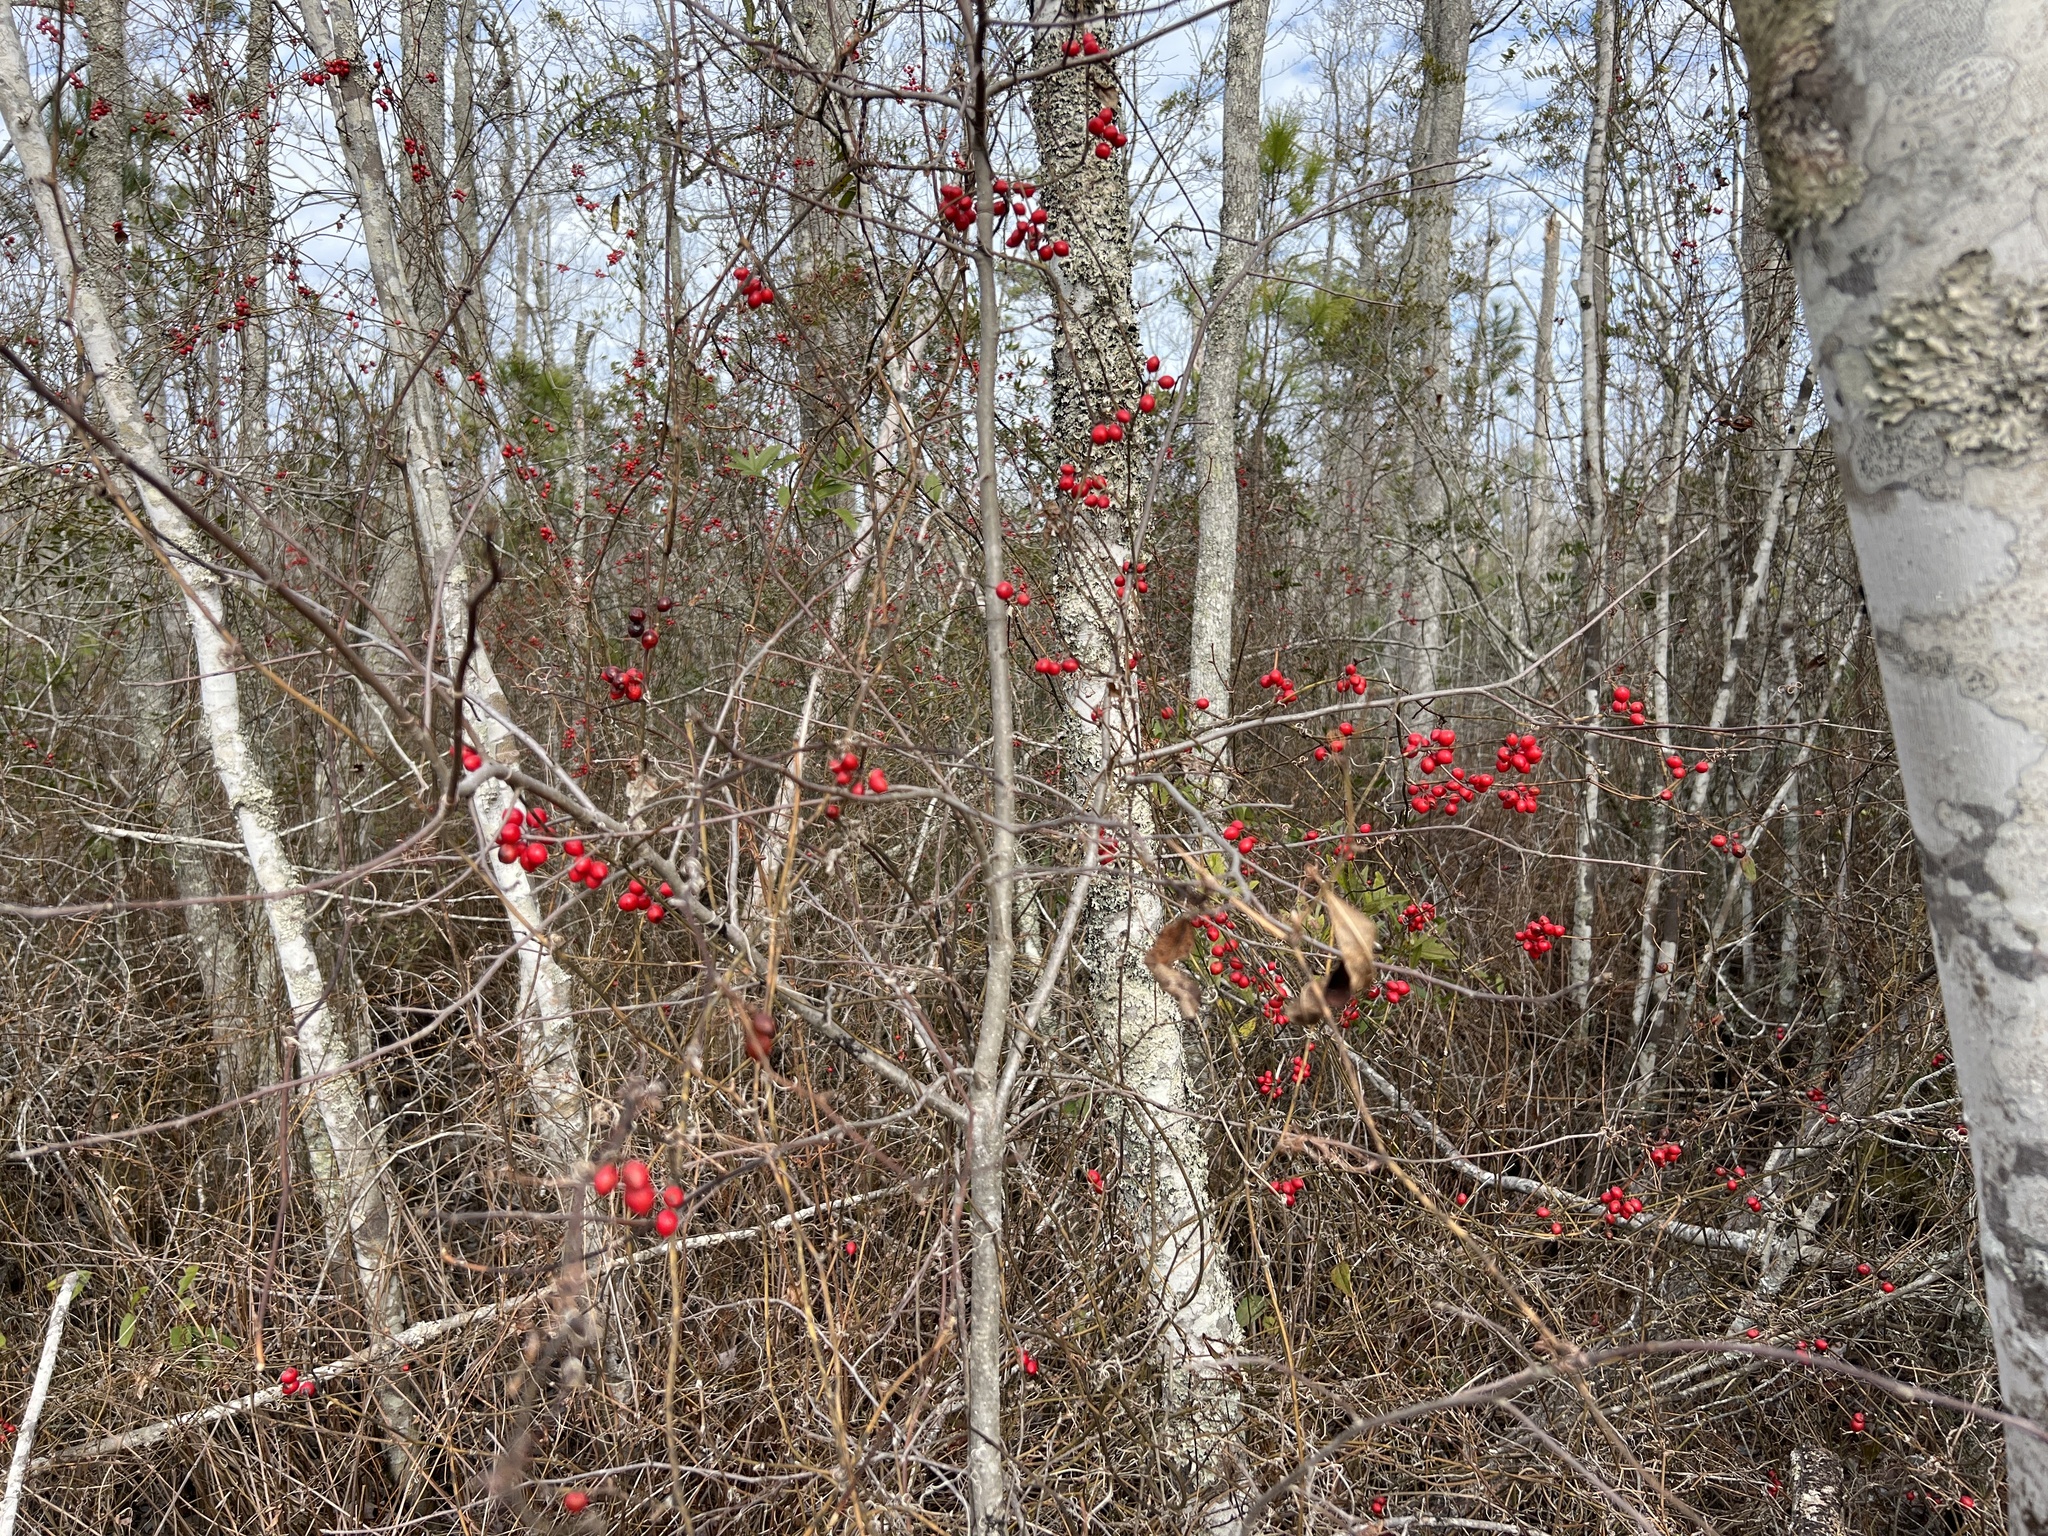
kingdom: Plantae
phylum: Tracheophyta
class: Liliopsida
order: Liliales
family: Smilacaceae
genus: Smilax
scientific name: Smilax walteri
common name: Coral greenbrier
